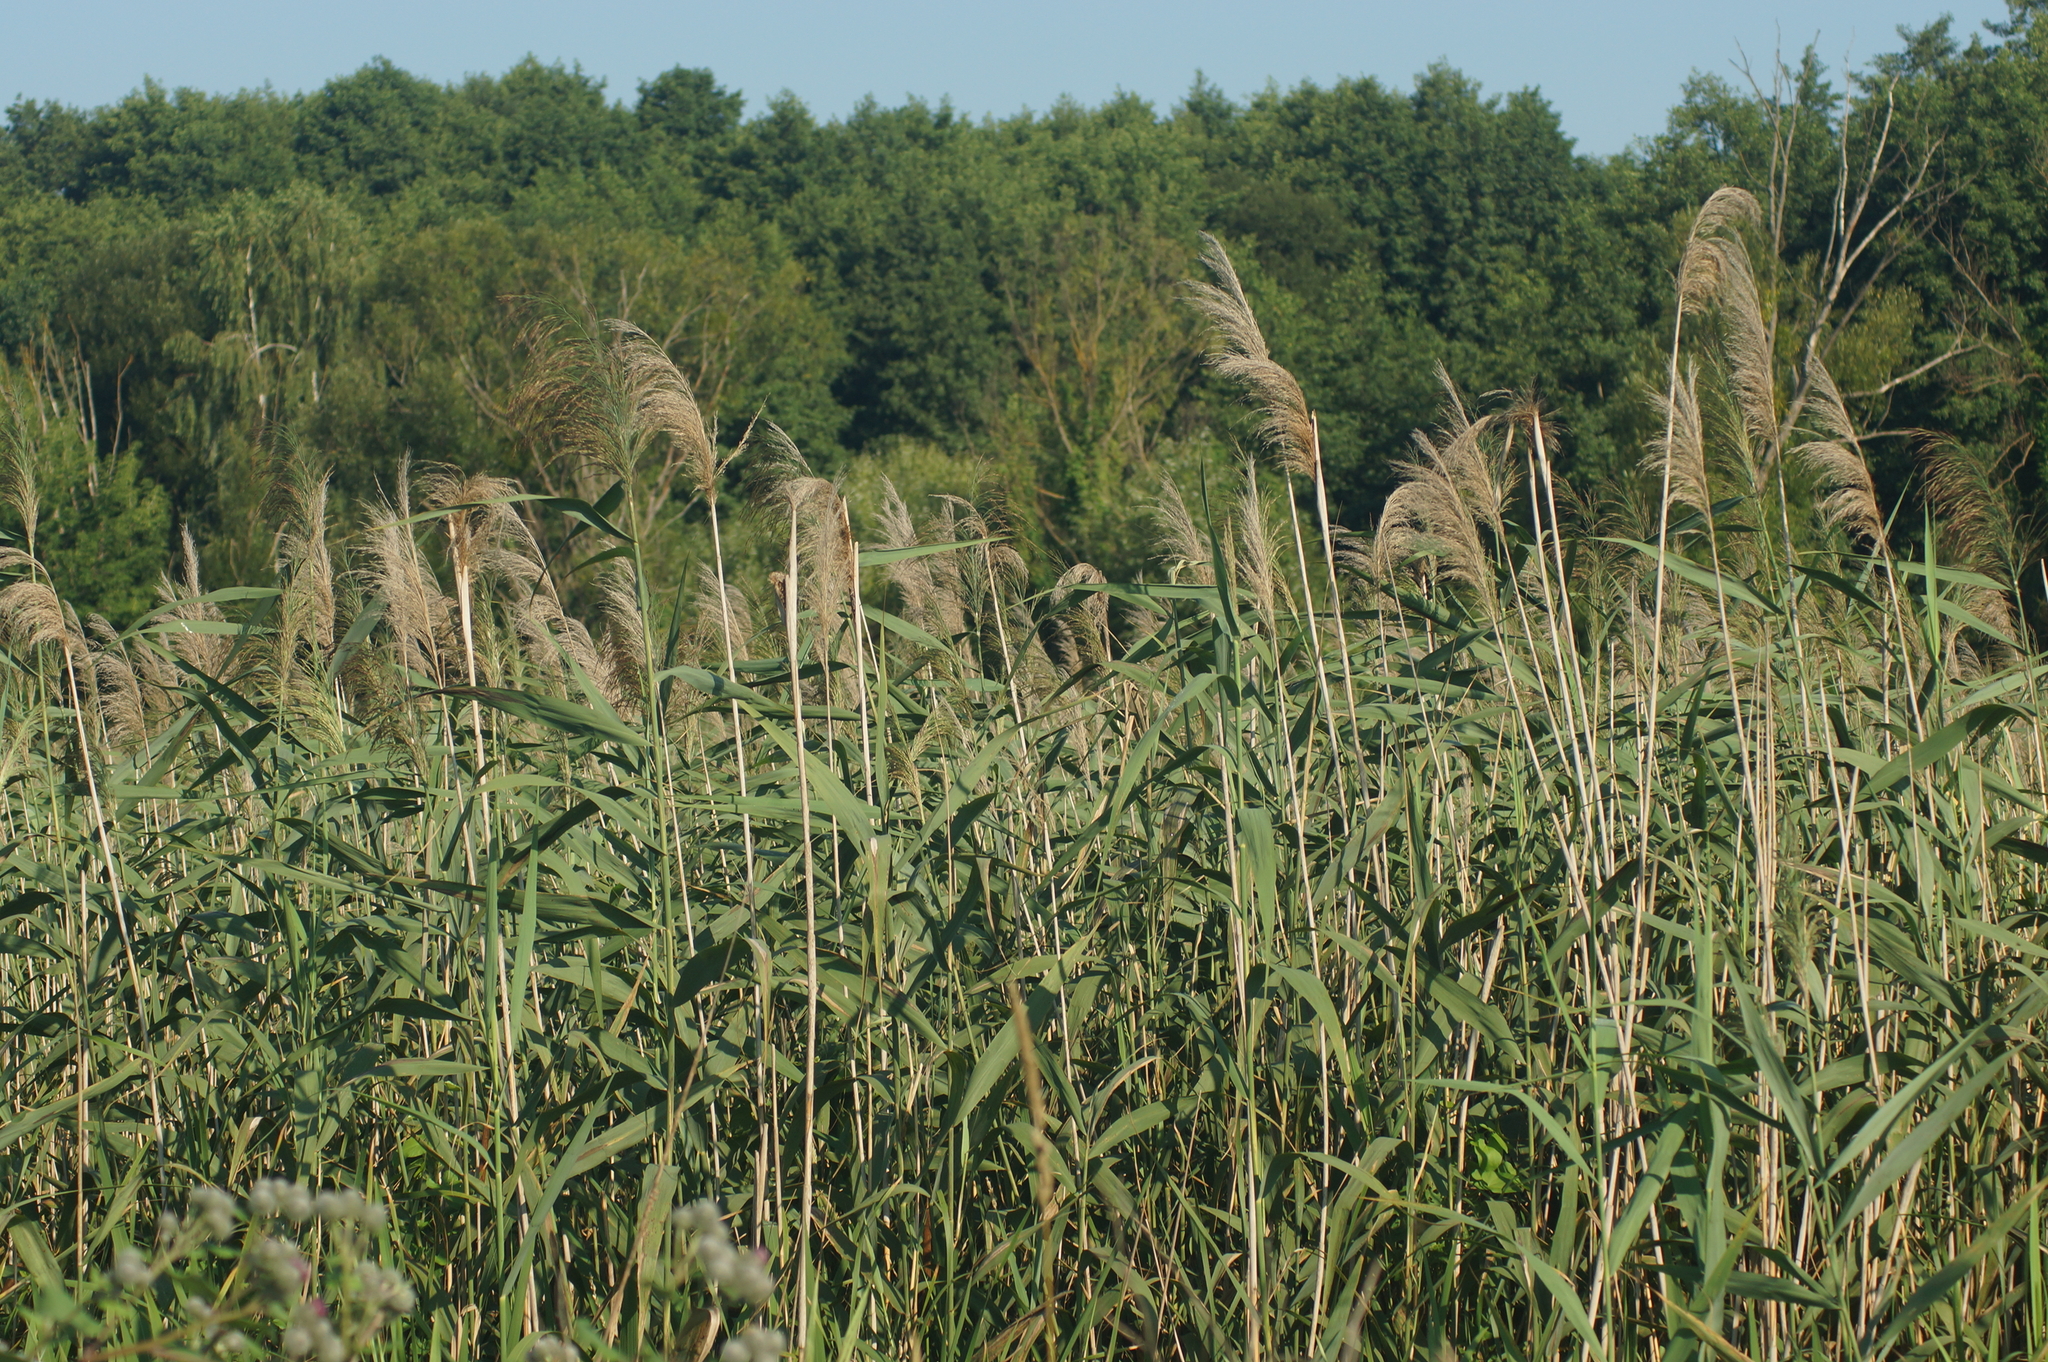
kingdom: Plantae
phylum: Tracheophyta
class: Liliopsida
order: Poales
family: Poaceae
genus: Phragmites
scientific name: Phragmites australis
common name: Common reed
